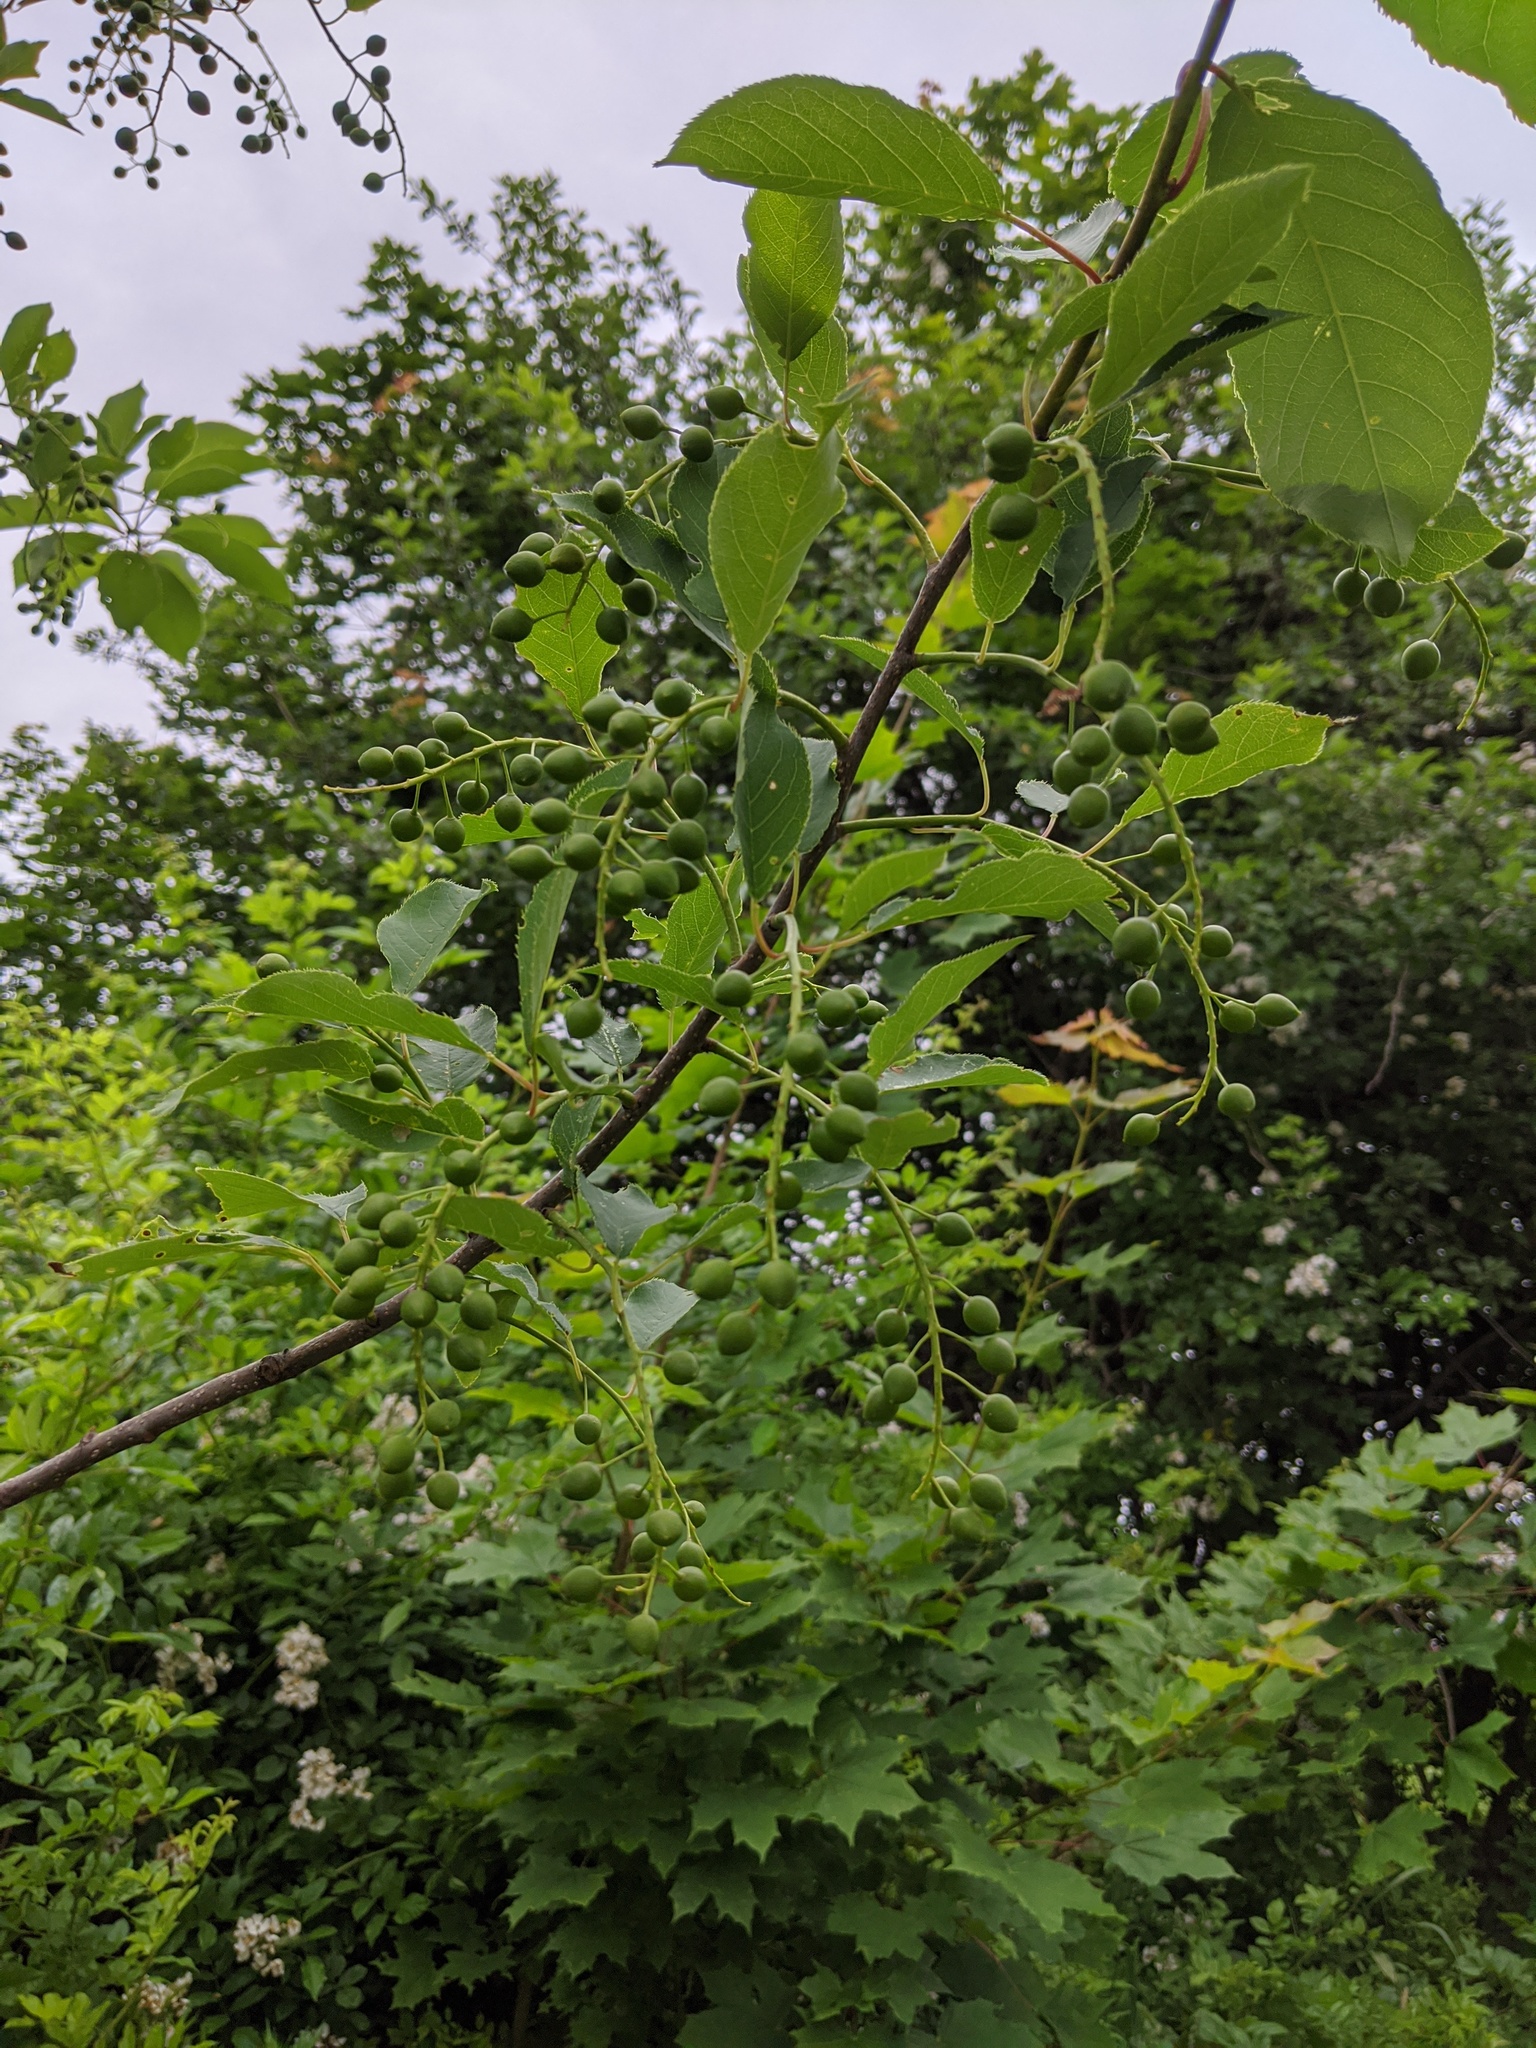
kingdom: Plantae
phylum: Tracheophyta
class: Magnoliopsida
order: Rosales
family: Rosaceae
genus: Prunus
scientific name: Prunus virginiana
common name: Chokecherry
